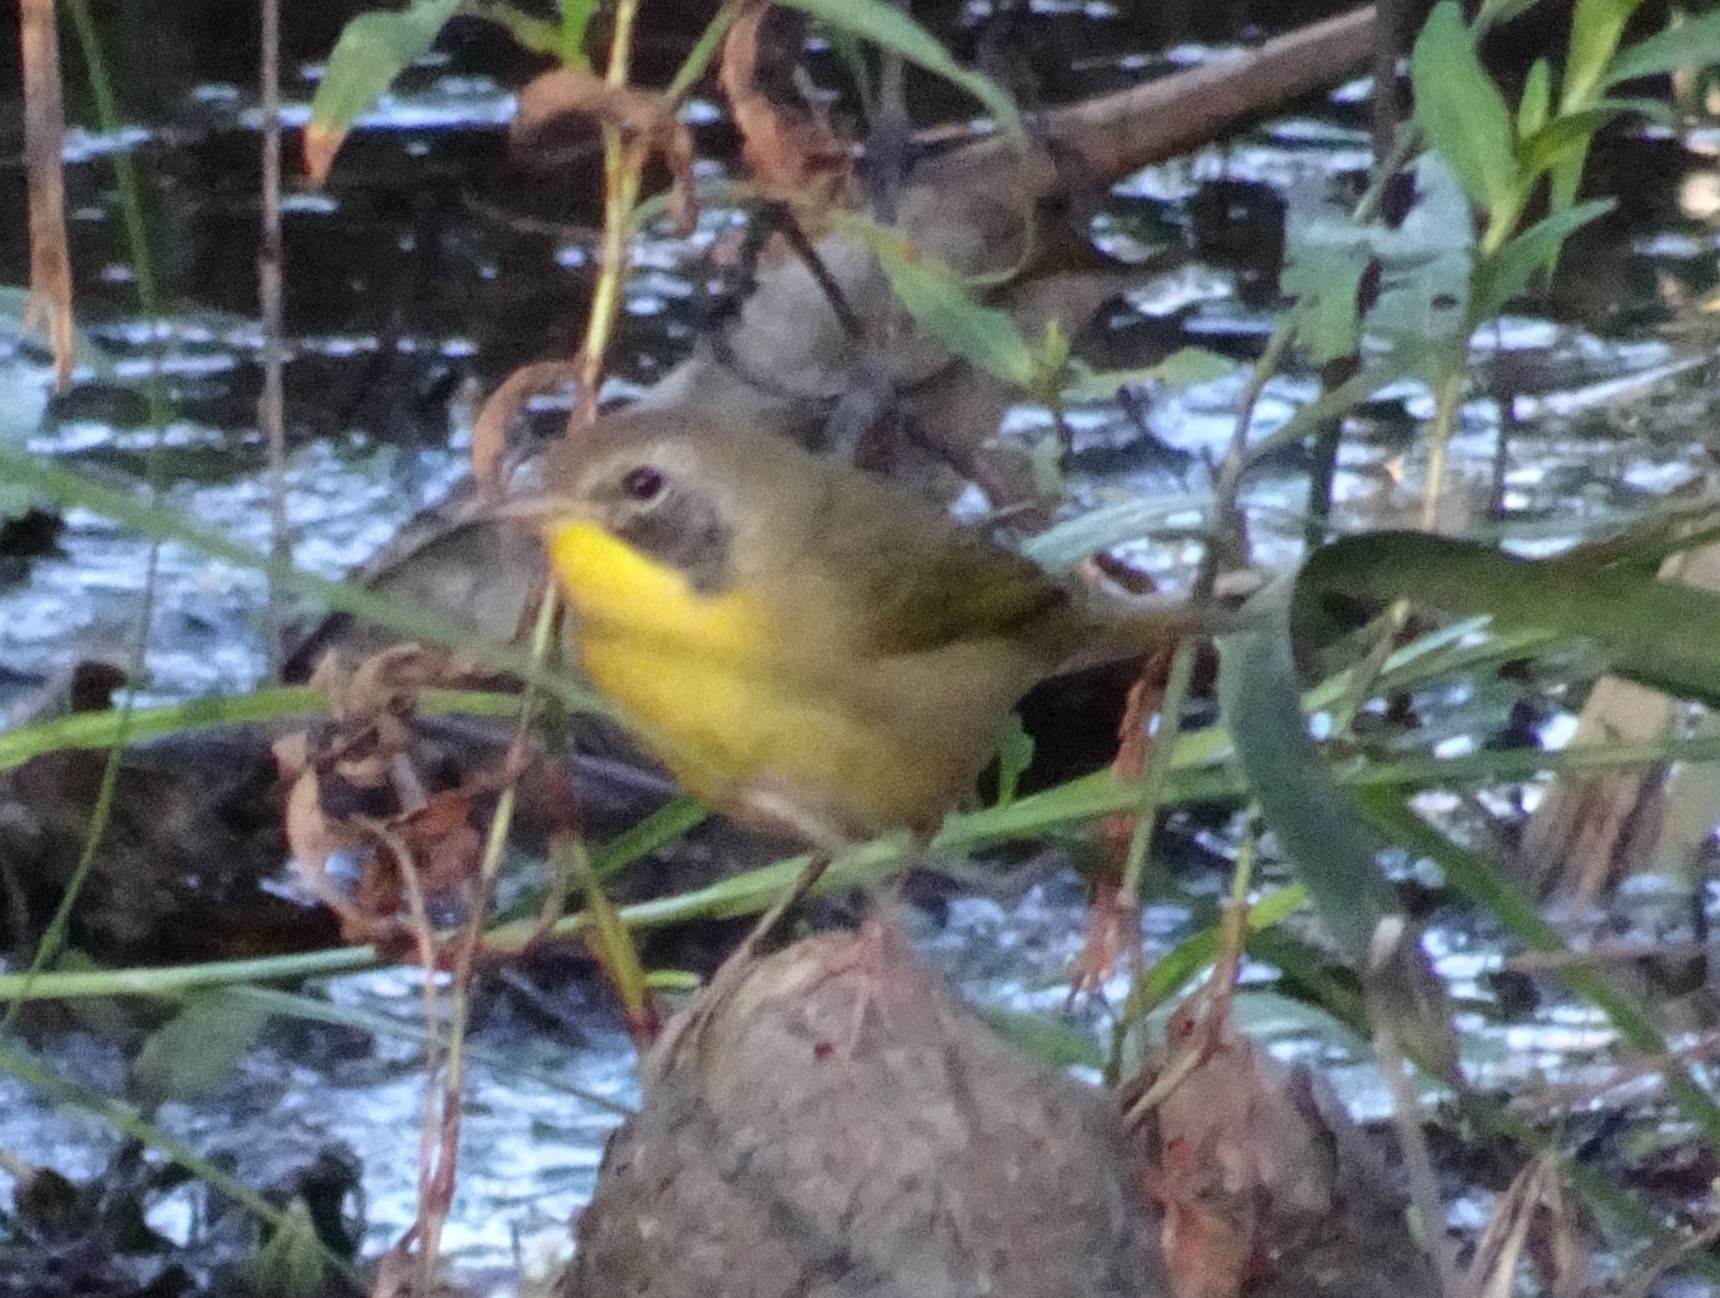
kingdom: Animalia
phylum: Chordata
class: Aves
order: Passeriformes
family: Parulidae
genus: Geothlypis
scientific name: Geothlypis trichas
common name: Common yellowthroat
